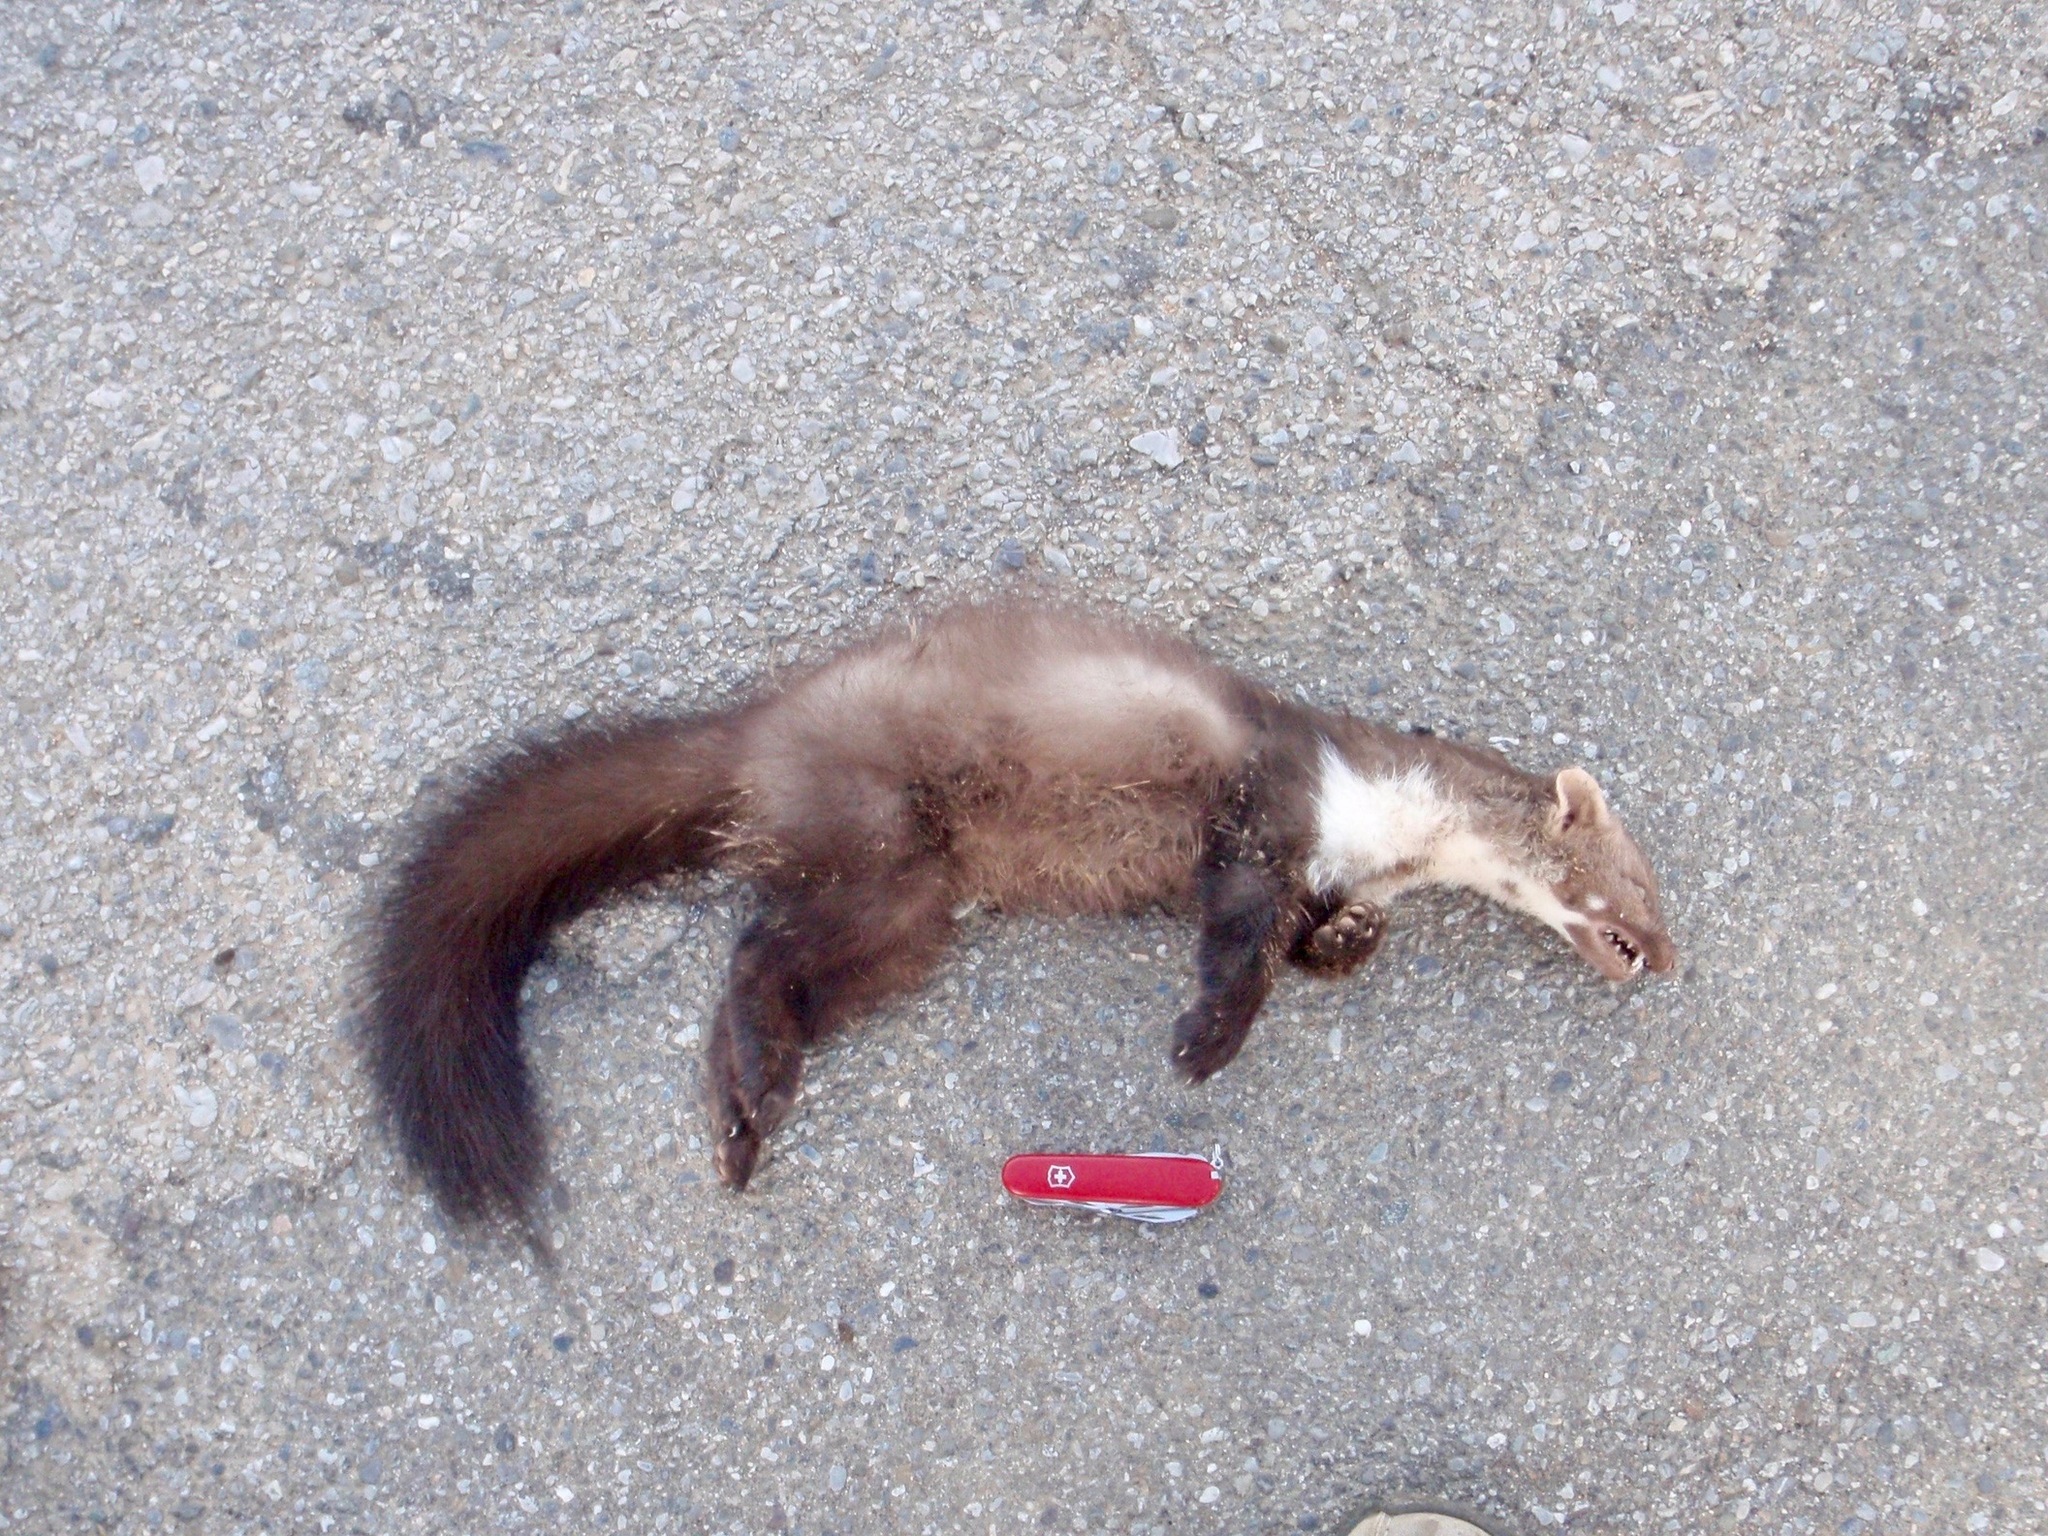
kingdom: Animalia
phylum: Chordata
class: Mammalia
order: Carnivora
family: Mustelidae
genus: Martes
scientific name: Martes foina
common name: Beech marten
